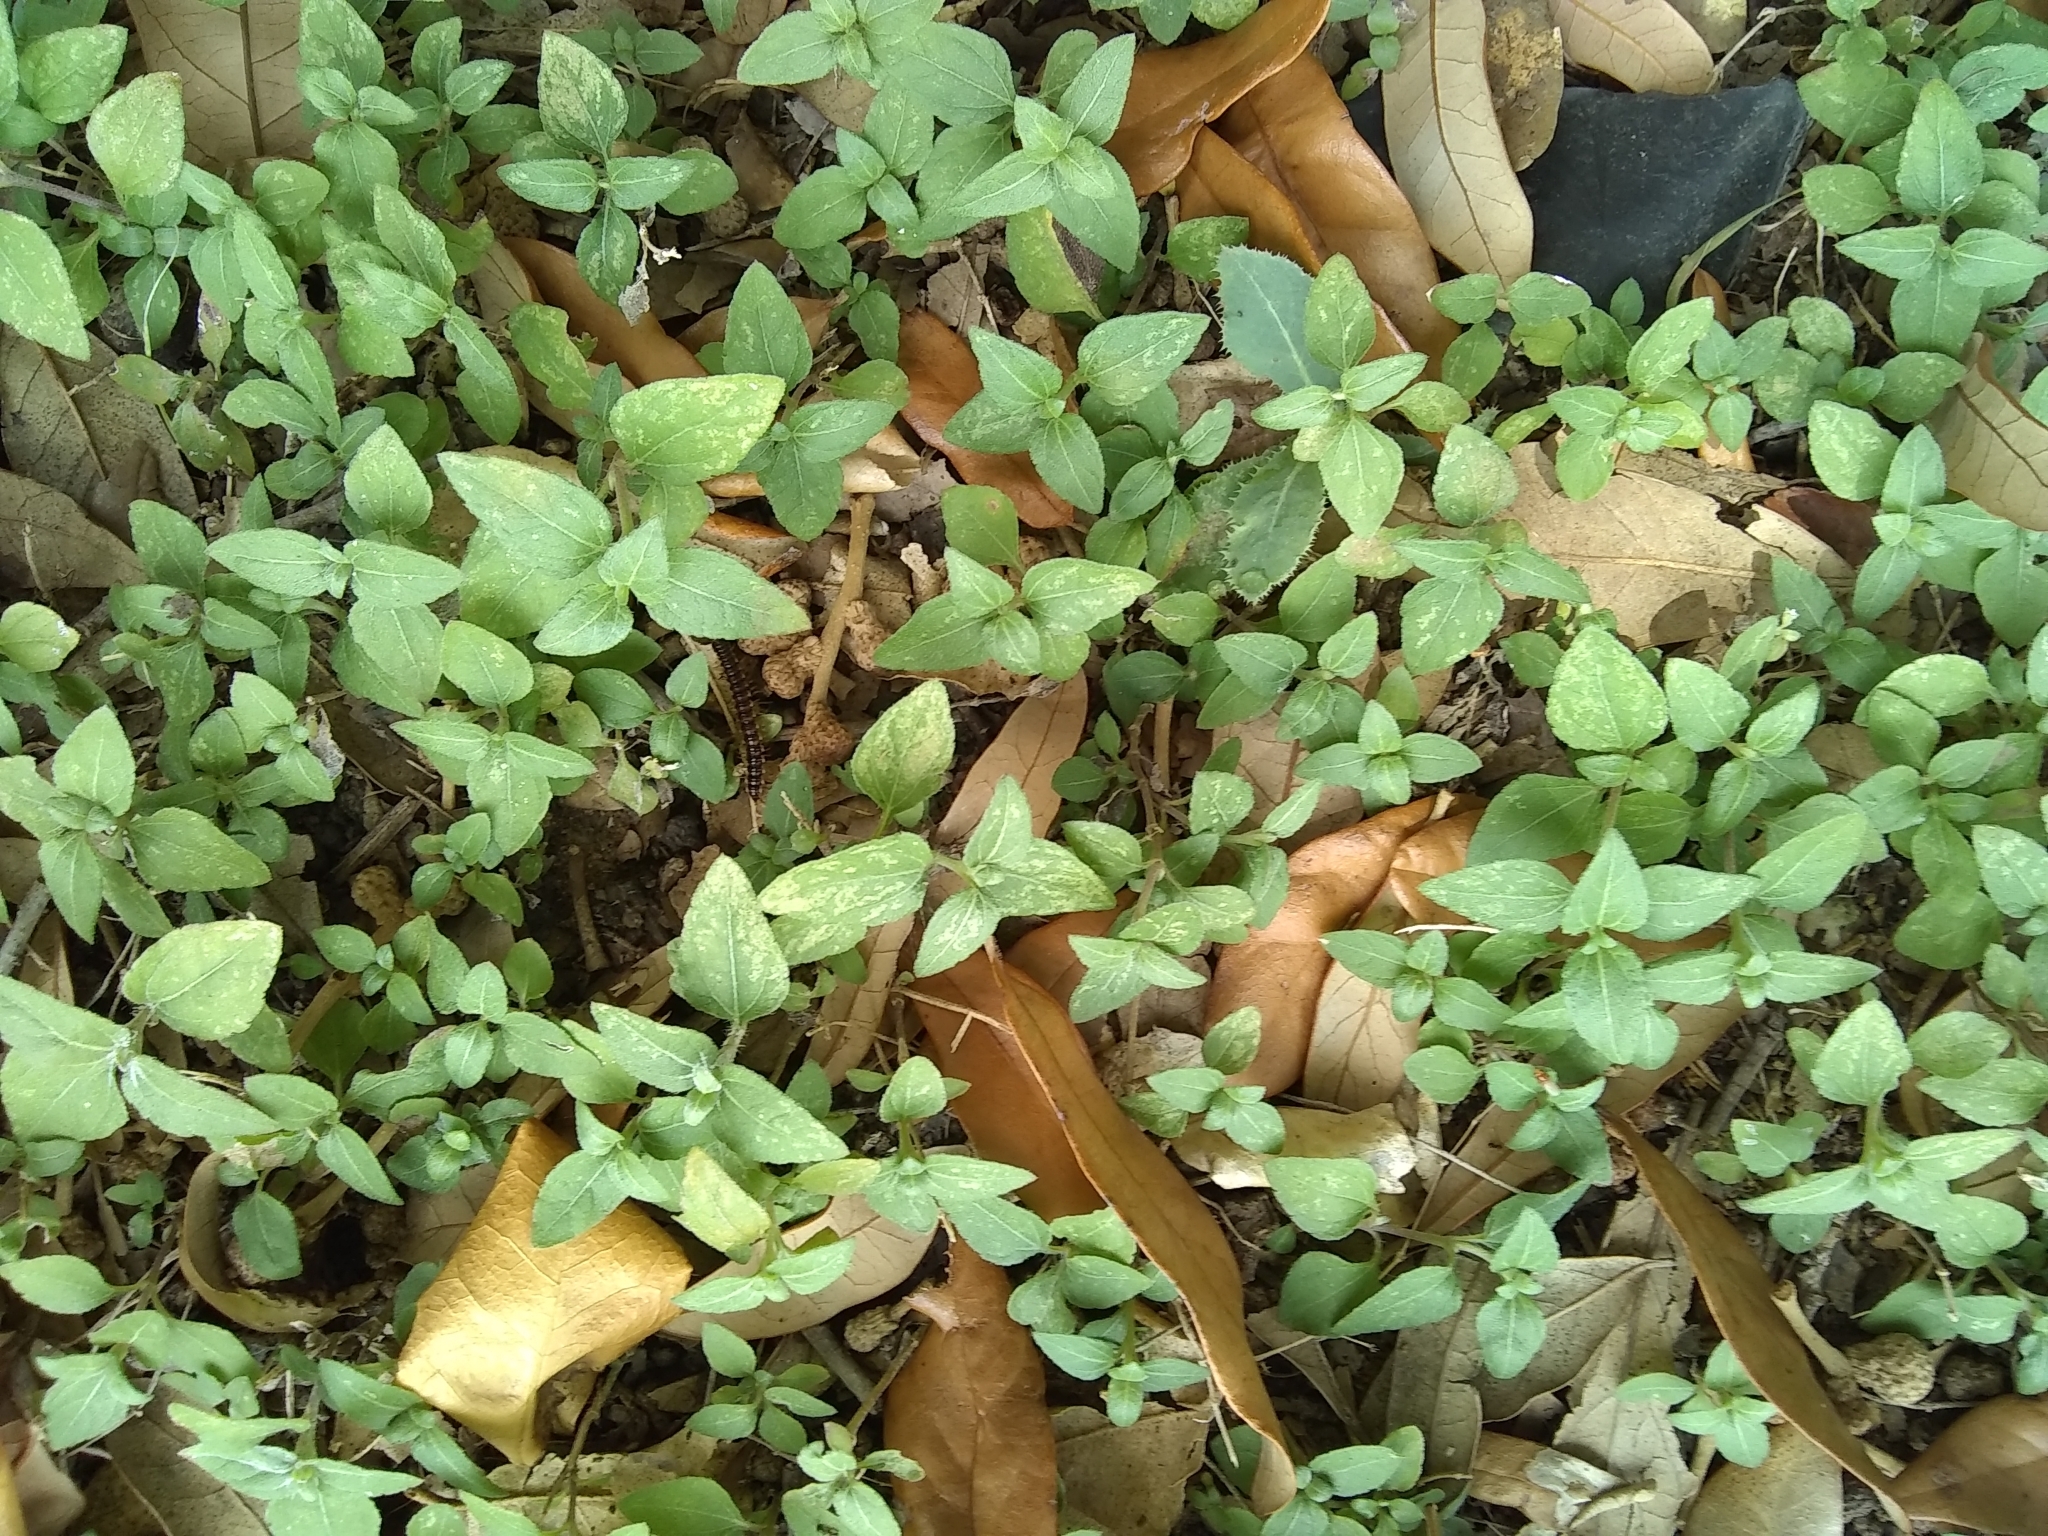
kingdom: Plantae
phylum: Tracheophyta
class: Magnoliopsida
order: Asterales
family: Asteraceae
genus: Calyptocarpus
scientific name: Calyptocarpus vialis
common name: Straggler daisy
